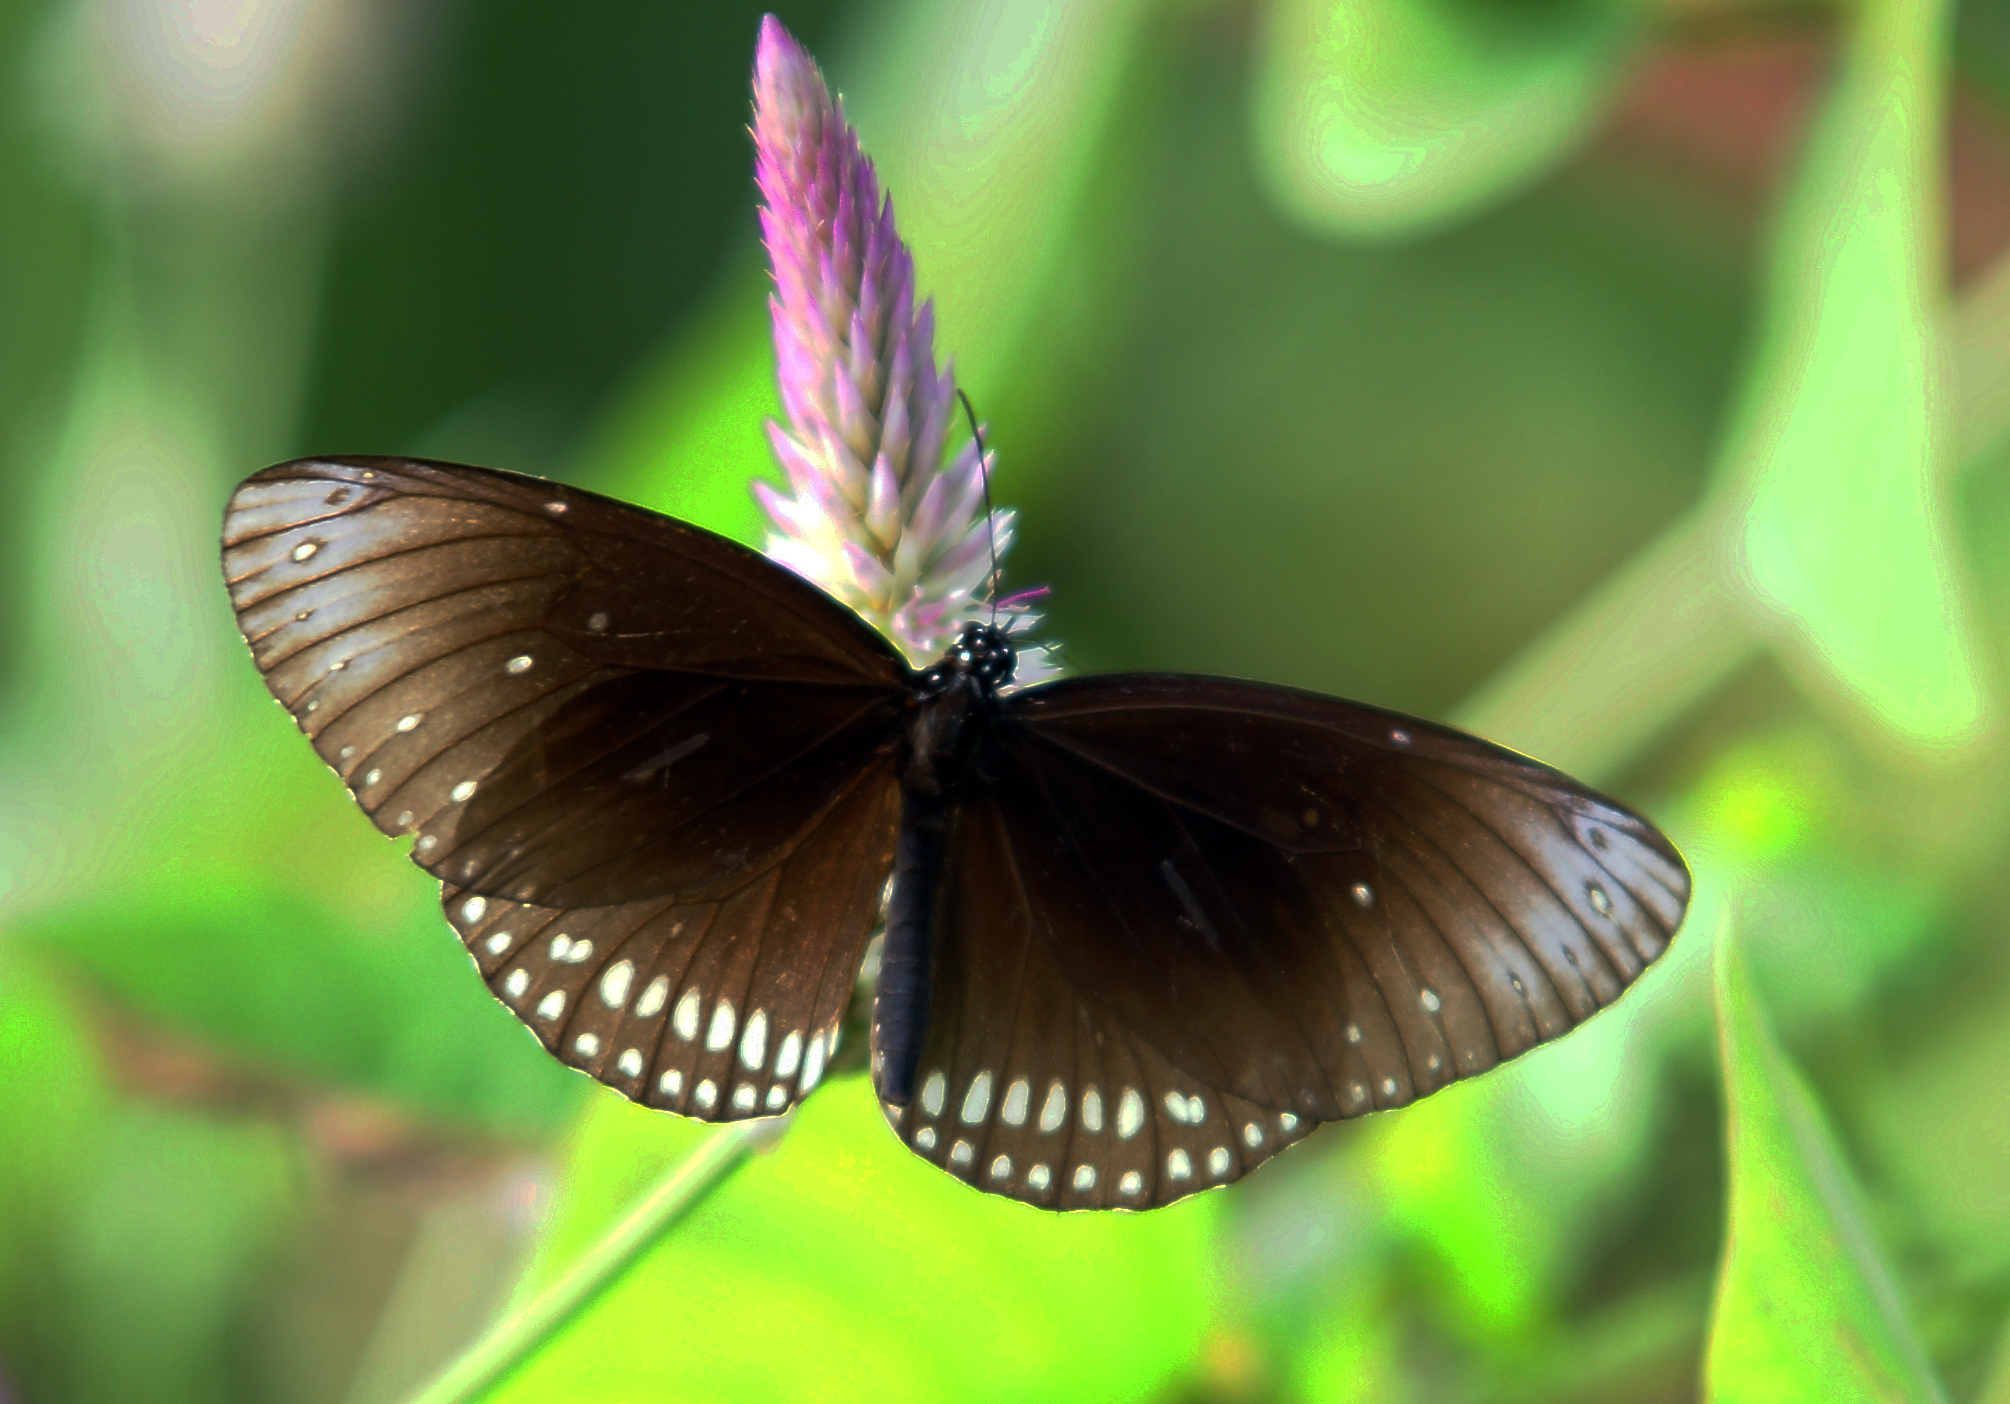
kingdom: Animalia
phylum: Arthropoda
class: Insecta
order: Lepidoptera
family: Nymphalidae
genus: Euploea
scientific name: Euploea core
